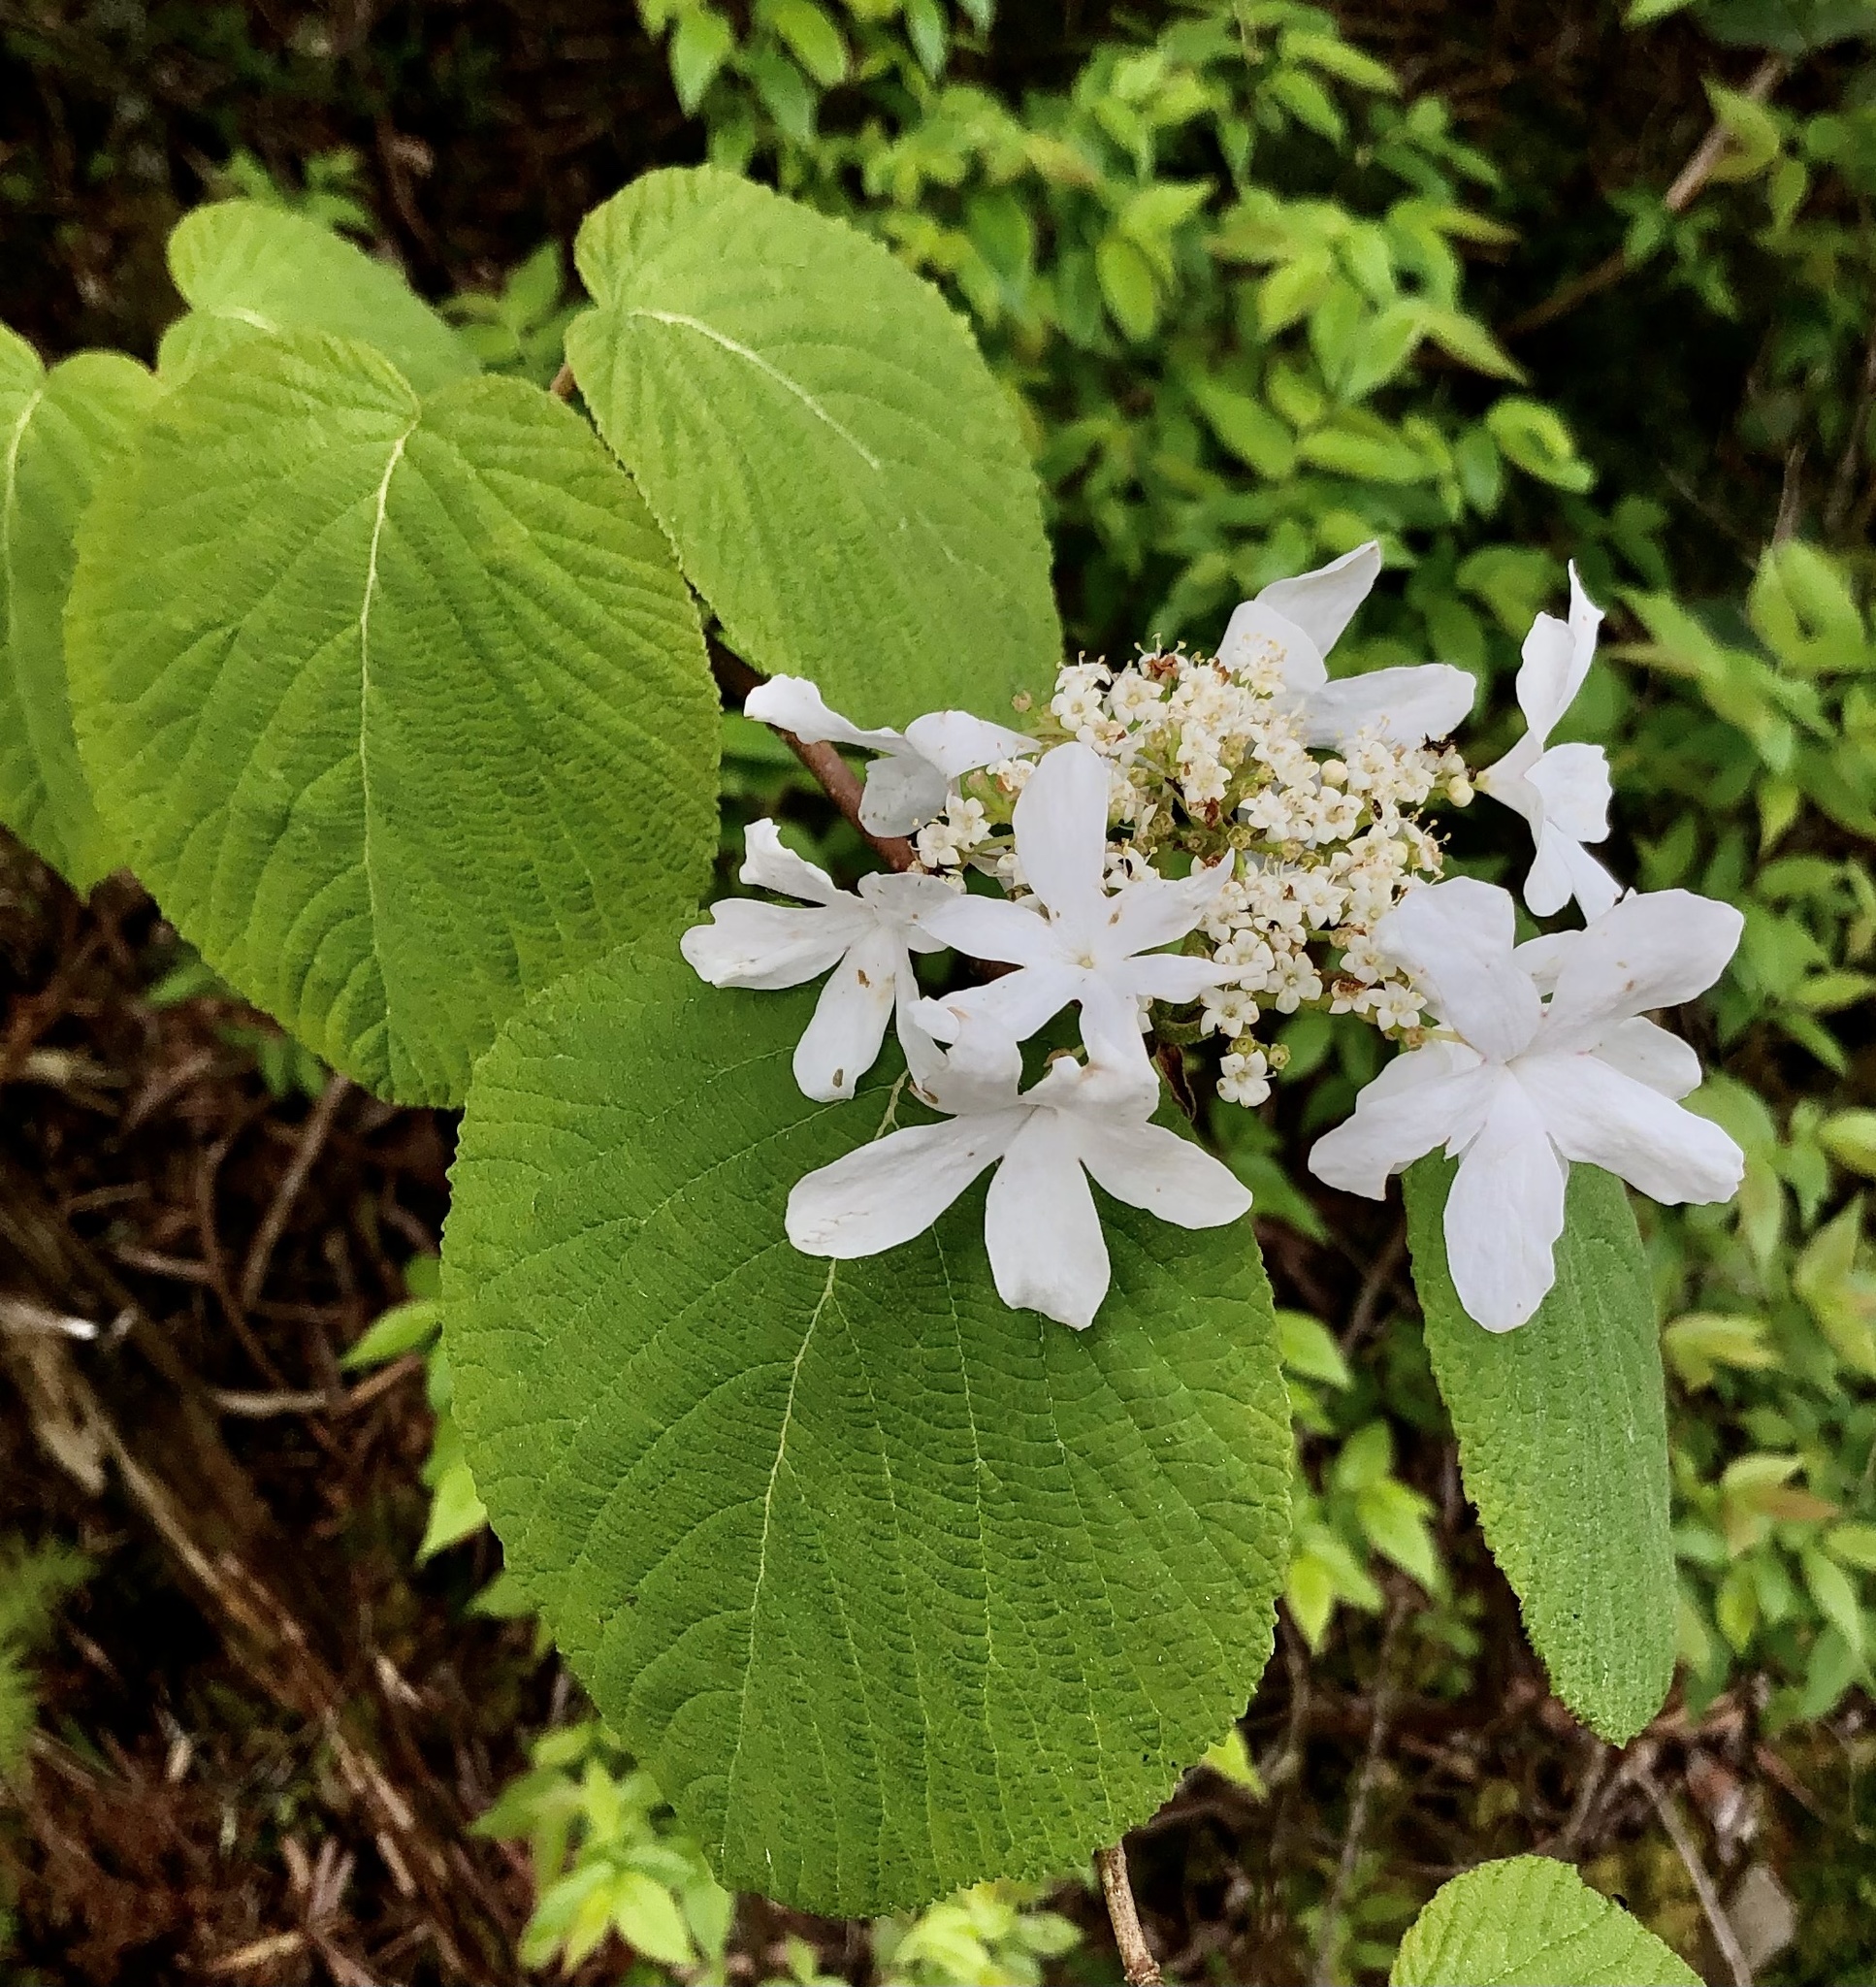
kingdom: Plantae
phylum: Tracheophyta
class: Magnoliopsida
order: Dipsacales
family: Viburnaceae
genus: Viburnum
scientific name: Viburnum lantanoides
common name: Hobblebush
